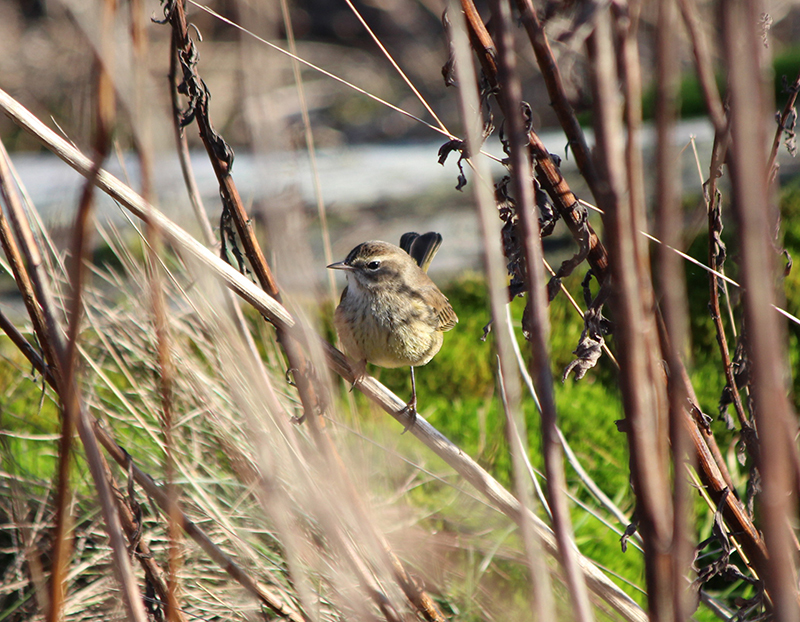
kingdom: Animalia
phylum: Chordata
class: Aves
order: Passeriformes
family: Parulidae
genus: Setophaga
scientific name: Setophaga palmarum
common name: Palm warbler
